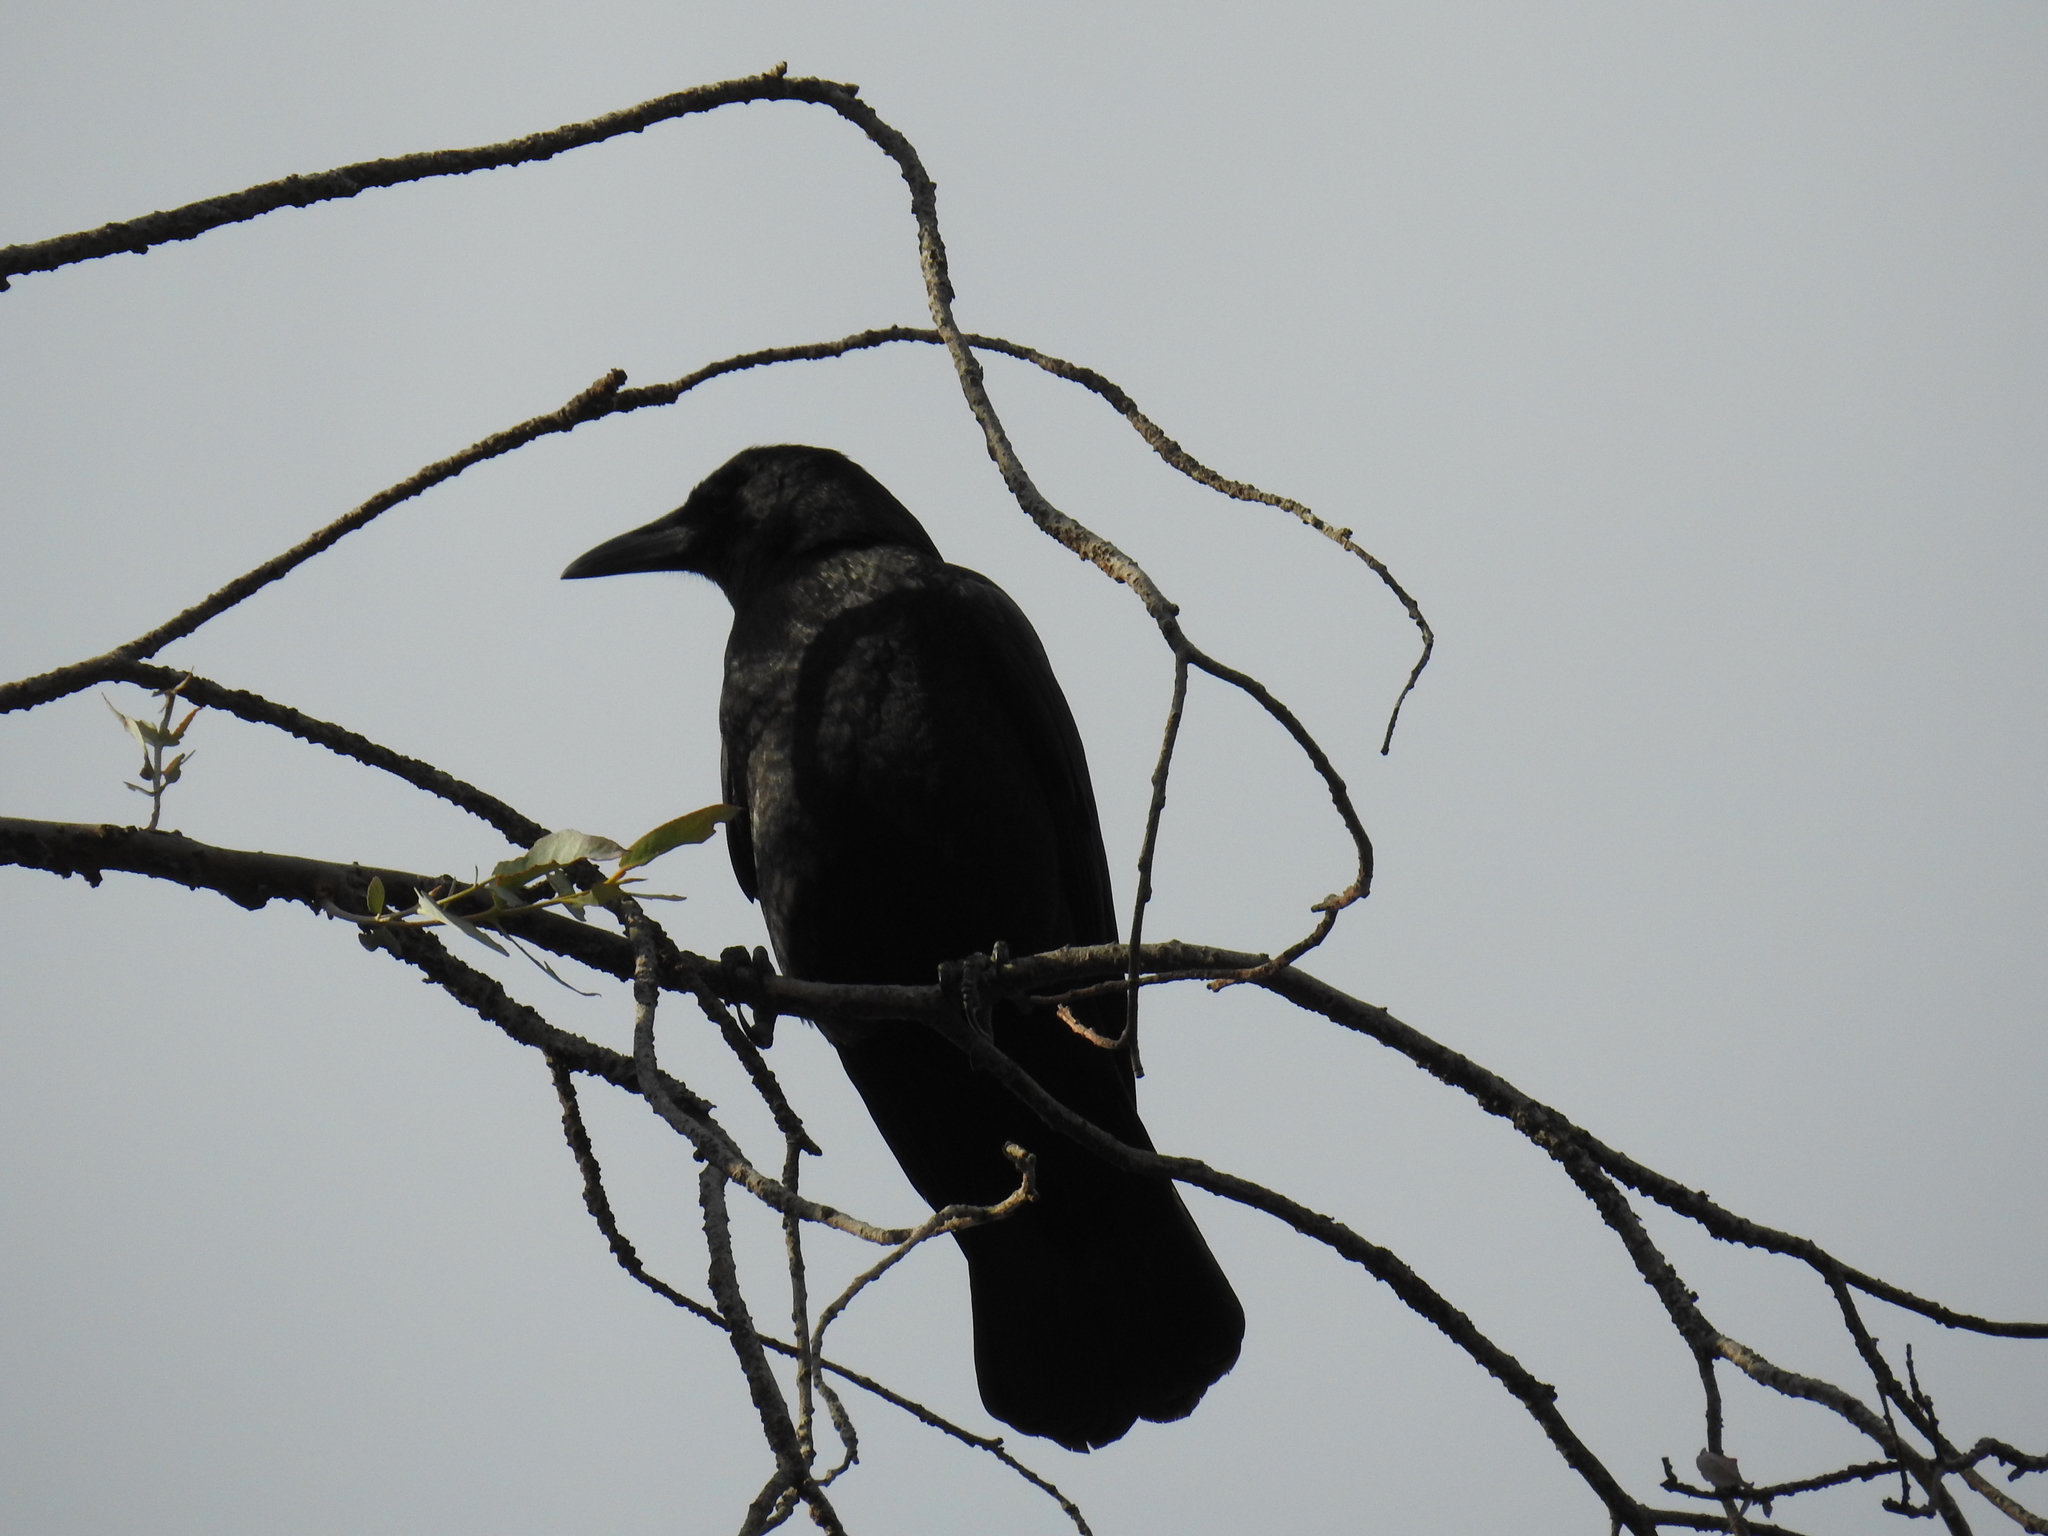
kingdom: Animalia
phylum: Chordata
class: Aves
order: Passeriformes
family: Corvidae
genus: Corvus
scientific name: Corvus brachyrhynchos
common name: American crow
